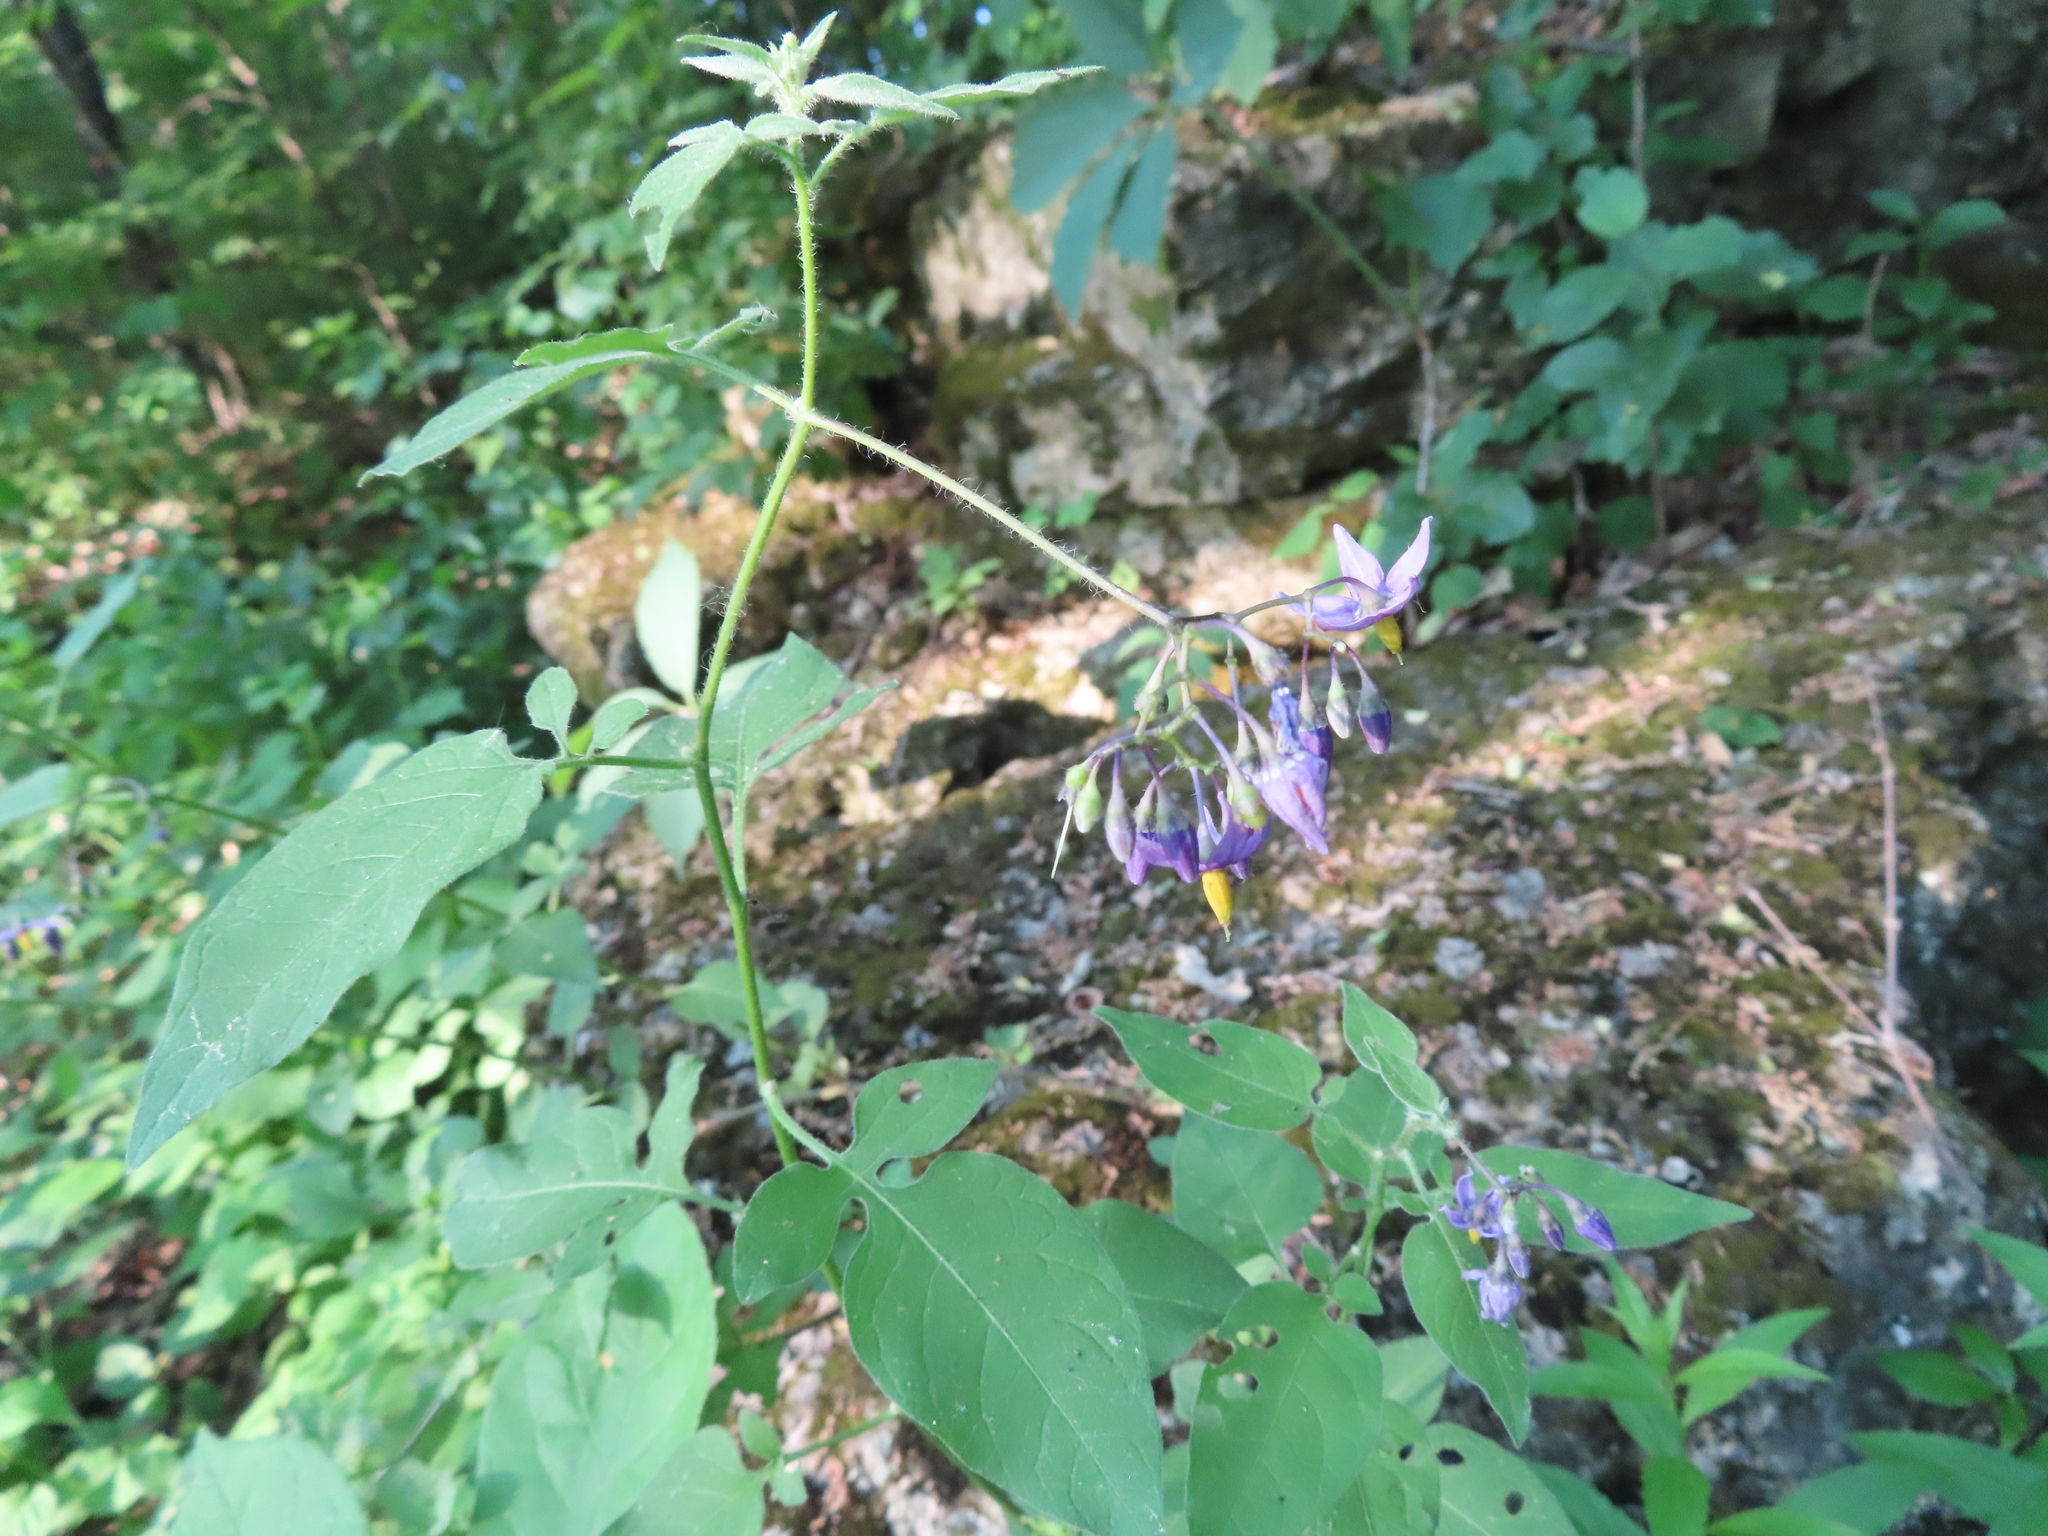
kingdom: Plantae
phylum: Tracheophyta
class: Magnoliopsida
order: Solanales
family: Solanaceae
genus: Solanum
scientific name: Solanum dulcamara
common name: Climbing nightshade
